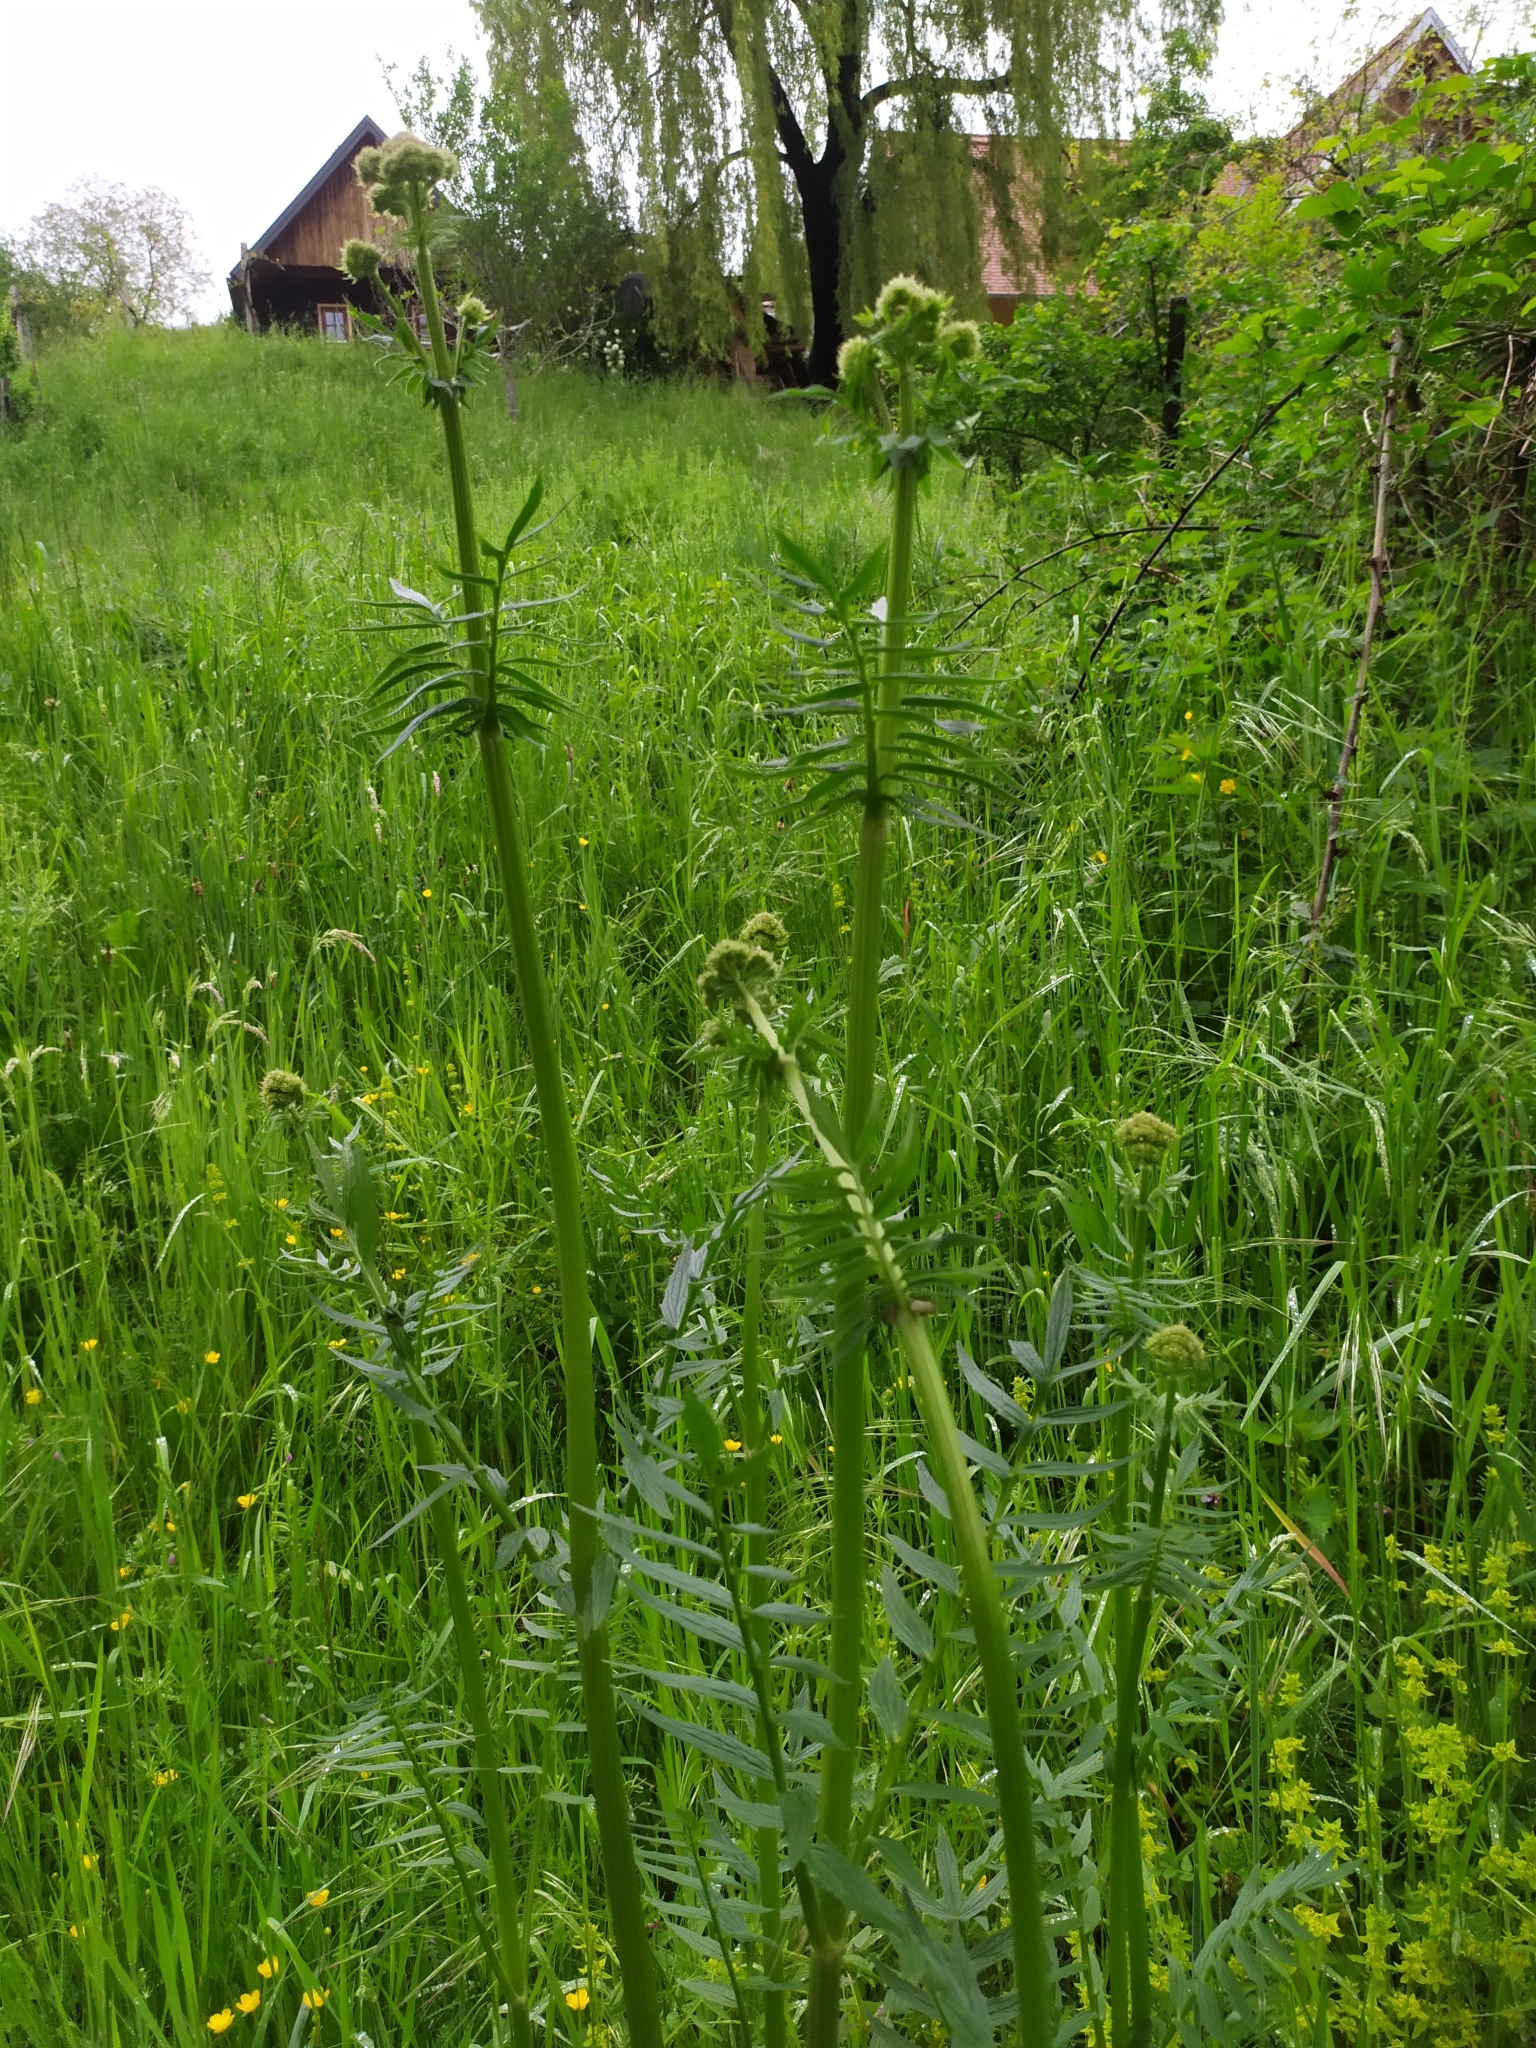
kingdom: Plantae
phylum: Tracheophyta
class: Magnoliopsida
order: Dipsacales
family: Caprifoliaceae
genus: Valeriana
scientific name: Valeriana officinalis
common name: Common valerian
